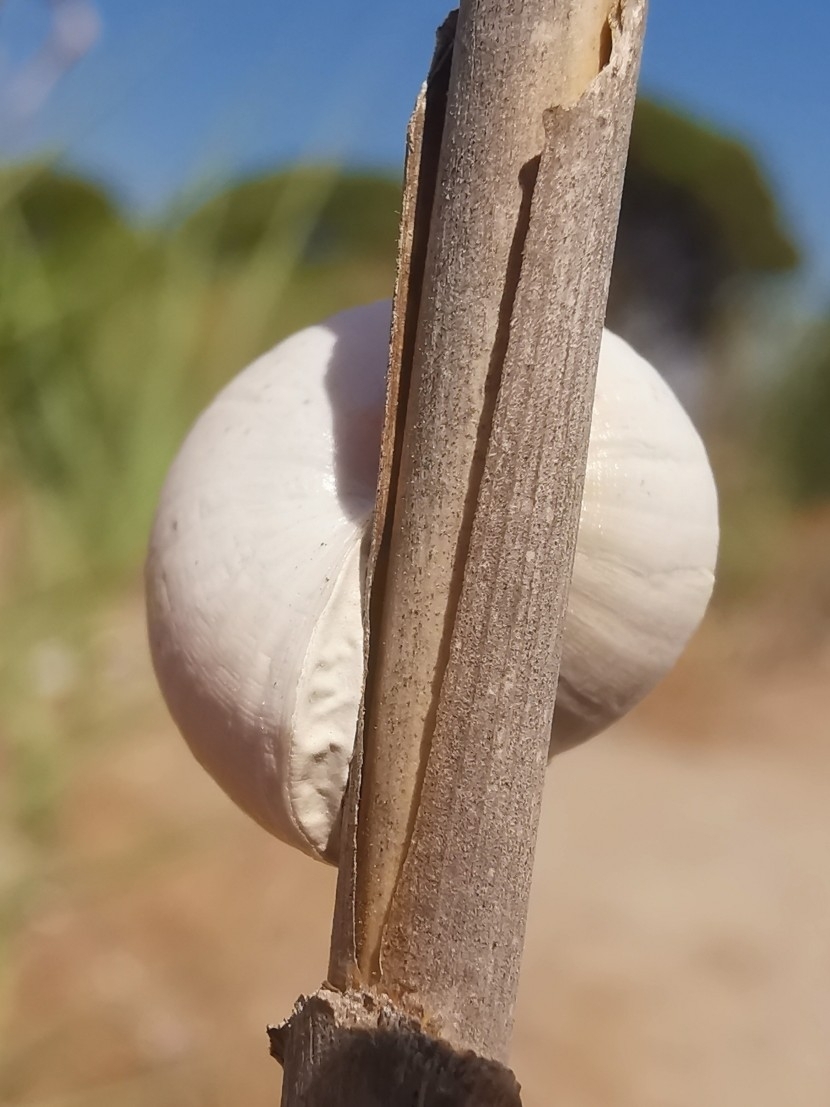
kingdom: Animalia
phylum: Mollusca
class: Gastropoda
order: Stylommatophora
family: Helicidae
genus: Theba
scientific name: Theba pisana
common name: White snail
